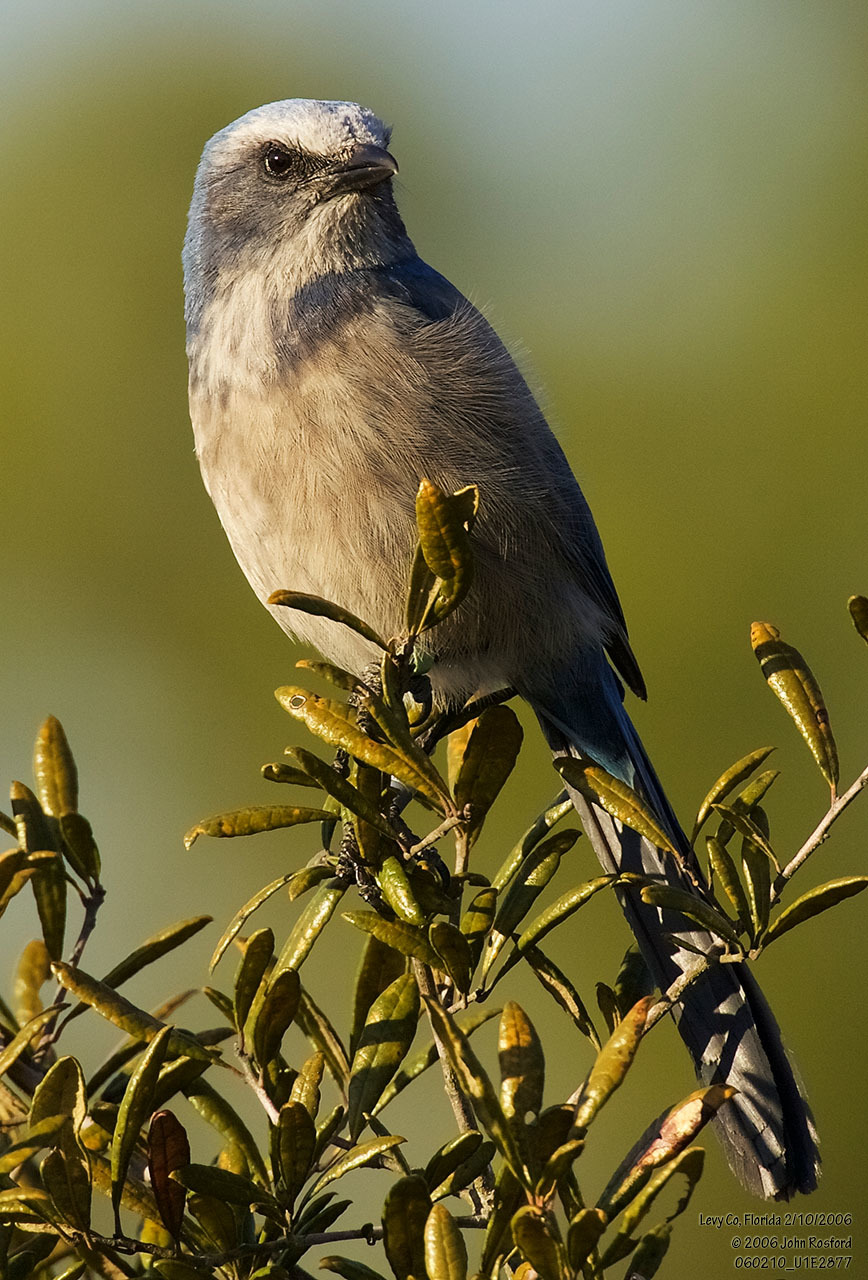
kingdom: Animalia
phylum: Chordata
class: Aves
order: Passeriformes
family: Corvidae
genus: Aphelocoma
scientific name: Aphelocoma coerulescens
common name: Florida scrub jay
